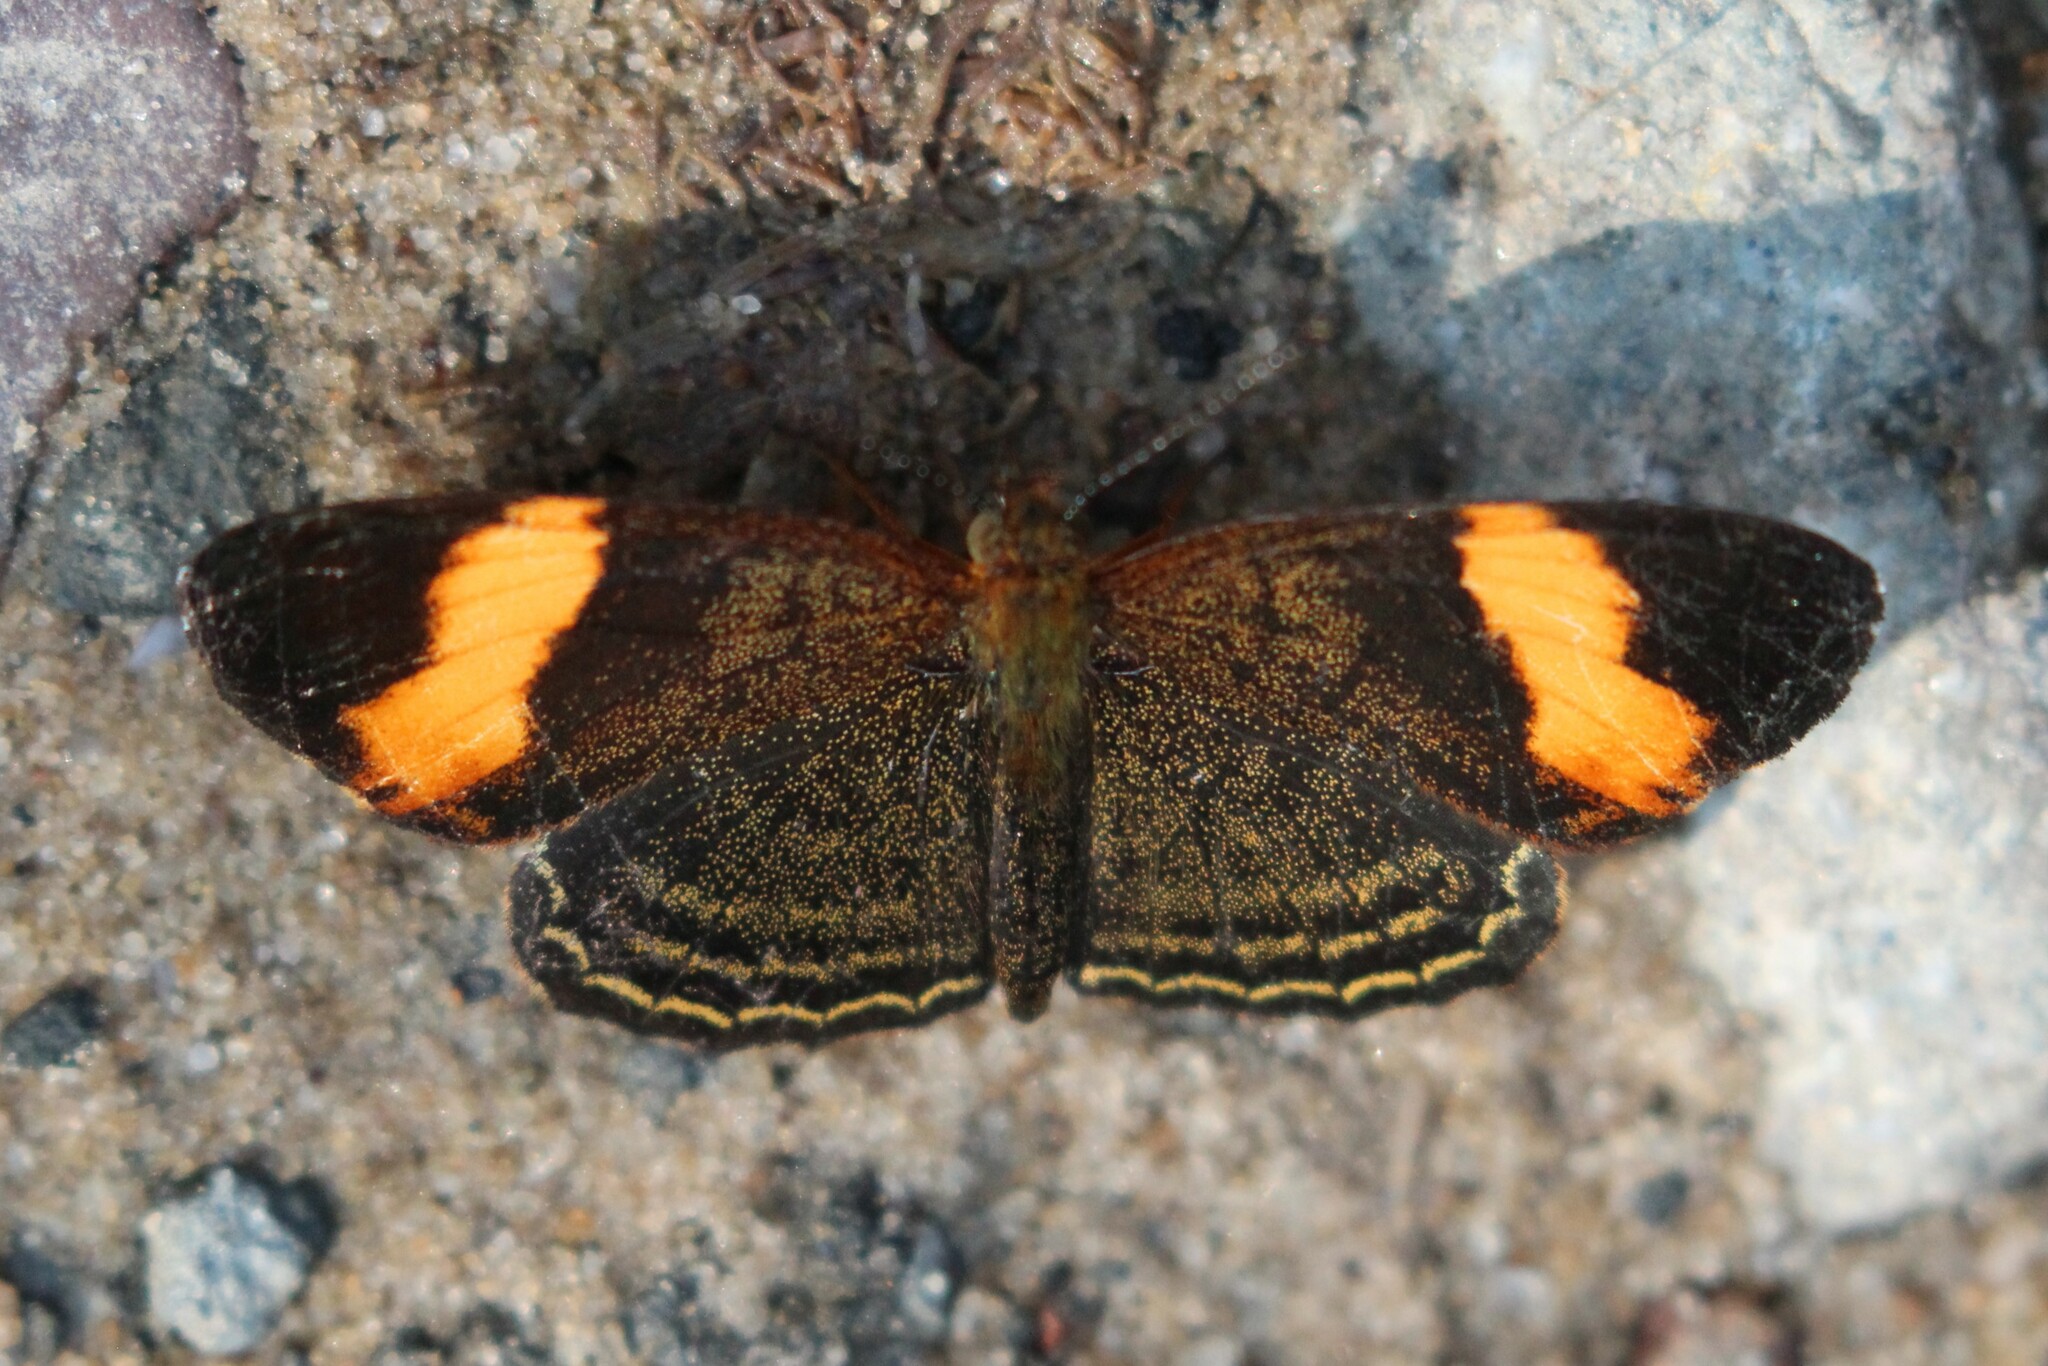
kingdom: Animalia
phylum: Arthropoda
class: Insecta
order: Lepidoptera
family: Nymphalidae
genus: Telenassa
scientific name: Telenassa jana
